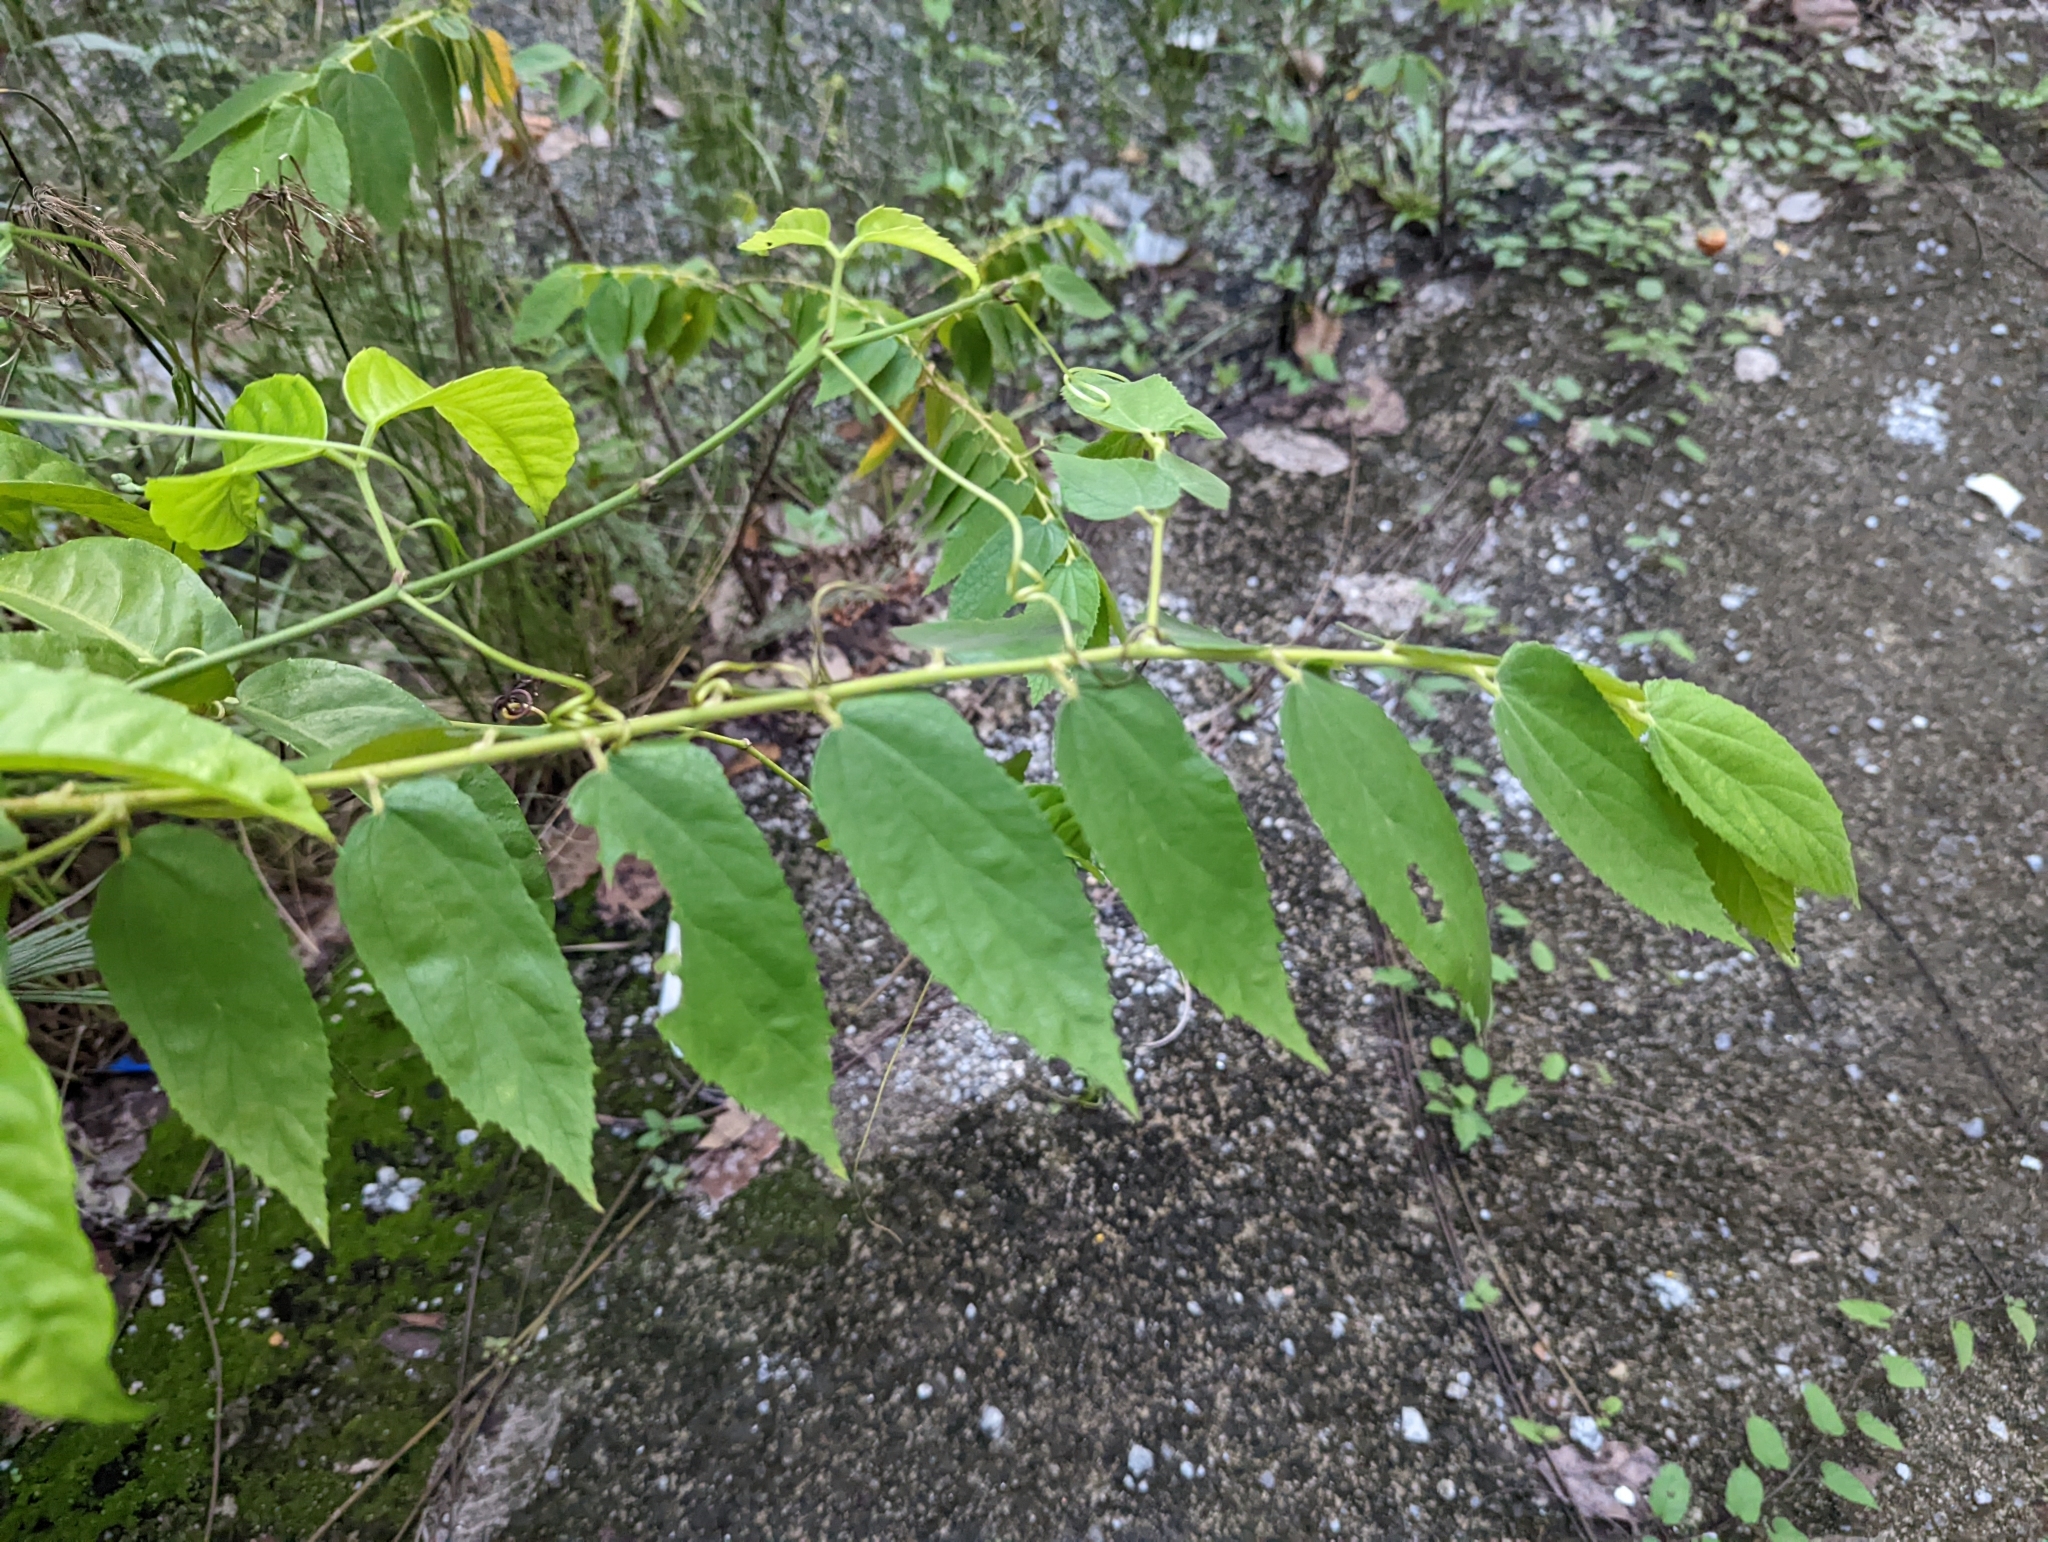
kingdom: Plantae
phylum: Tracheophyta
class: Magnoliopsida
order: Malvales
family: Muntingiaceae
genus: Muntingia
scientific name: Muntingia calabura
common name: Strawberrytree
